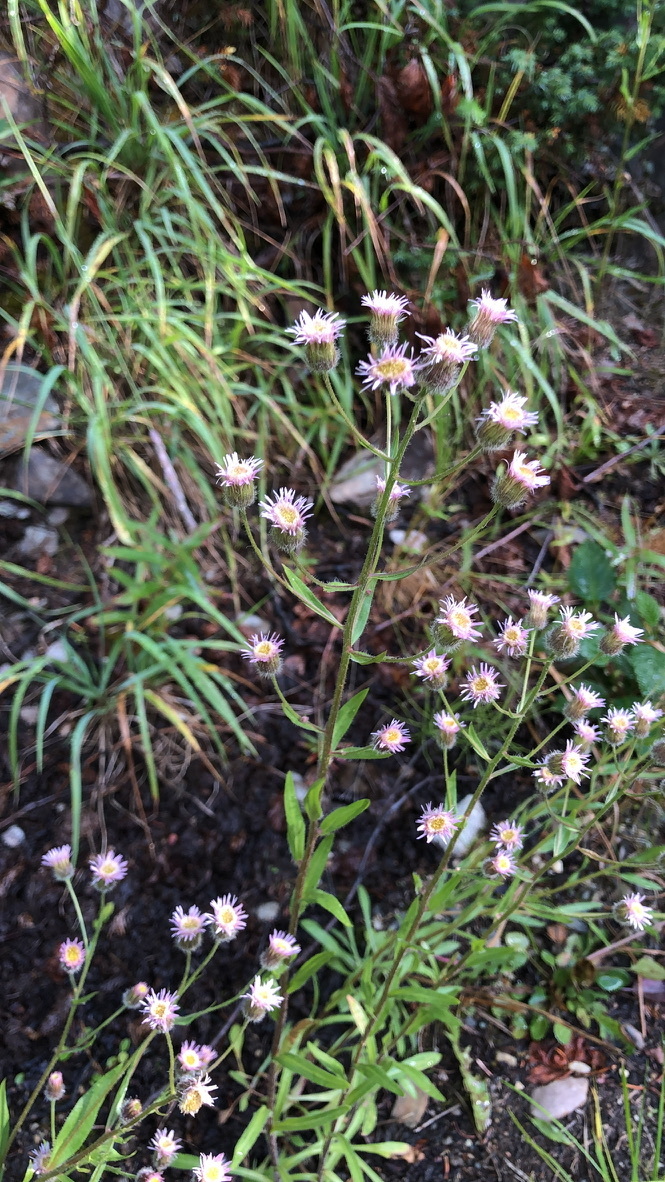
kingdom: Plantae
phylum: Tracheophyta
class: Magnoliopsida
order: Asterales
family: Asteraceae
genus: Erigeron
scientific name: Erigeron nivalis
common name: Snow fleabane
